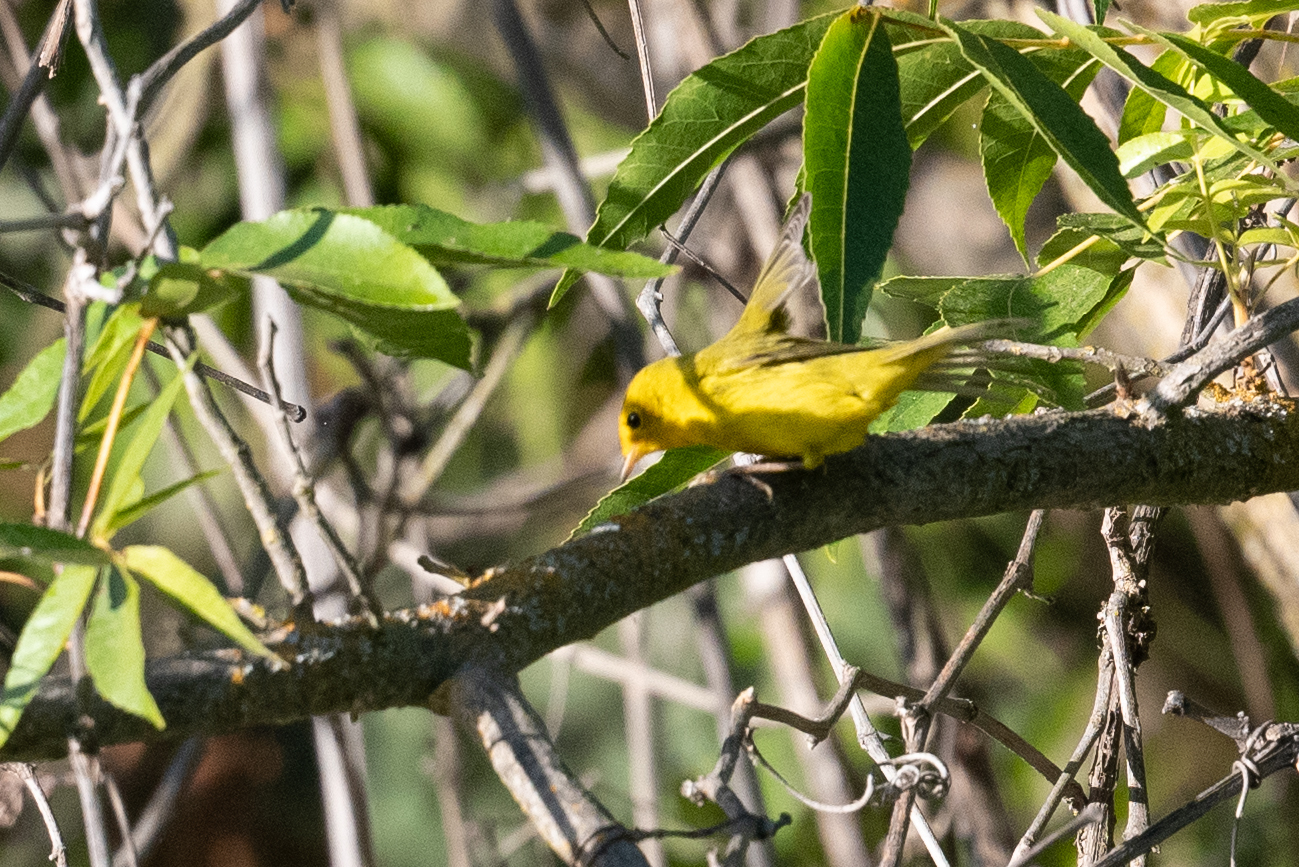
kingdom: Animalia
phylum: Chordata
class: Aves
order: Passeriformes
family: Parulidae
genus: Setophaga
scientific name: Setophaga petechia
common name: Yellow warbler
